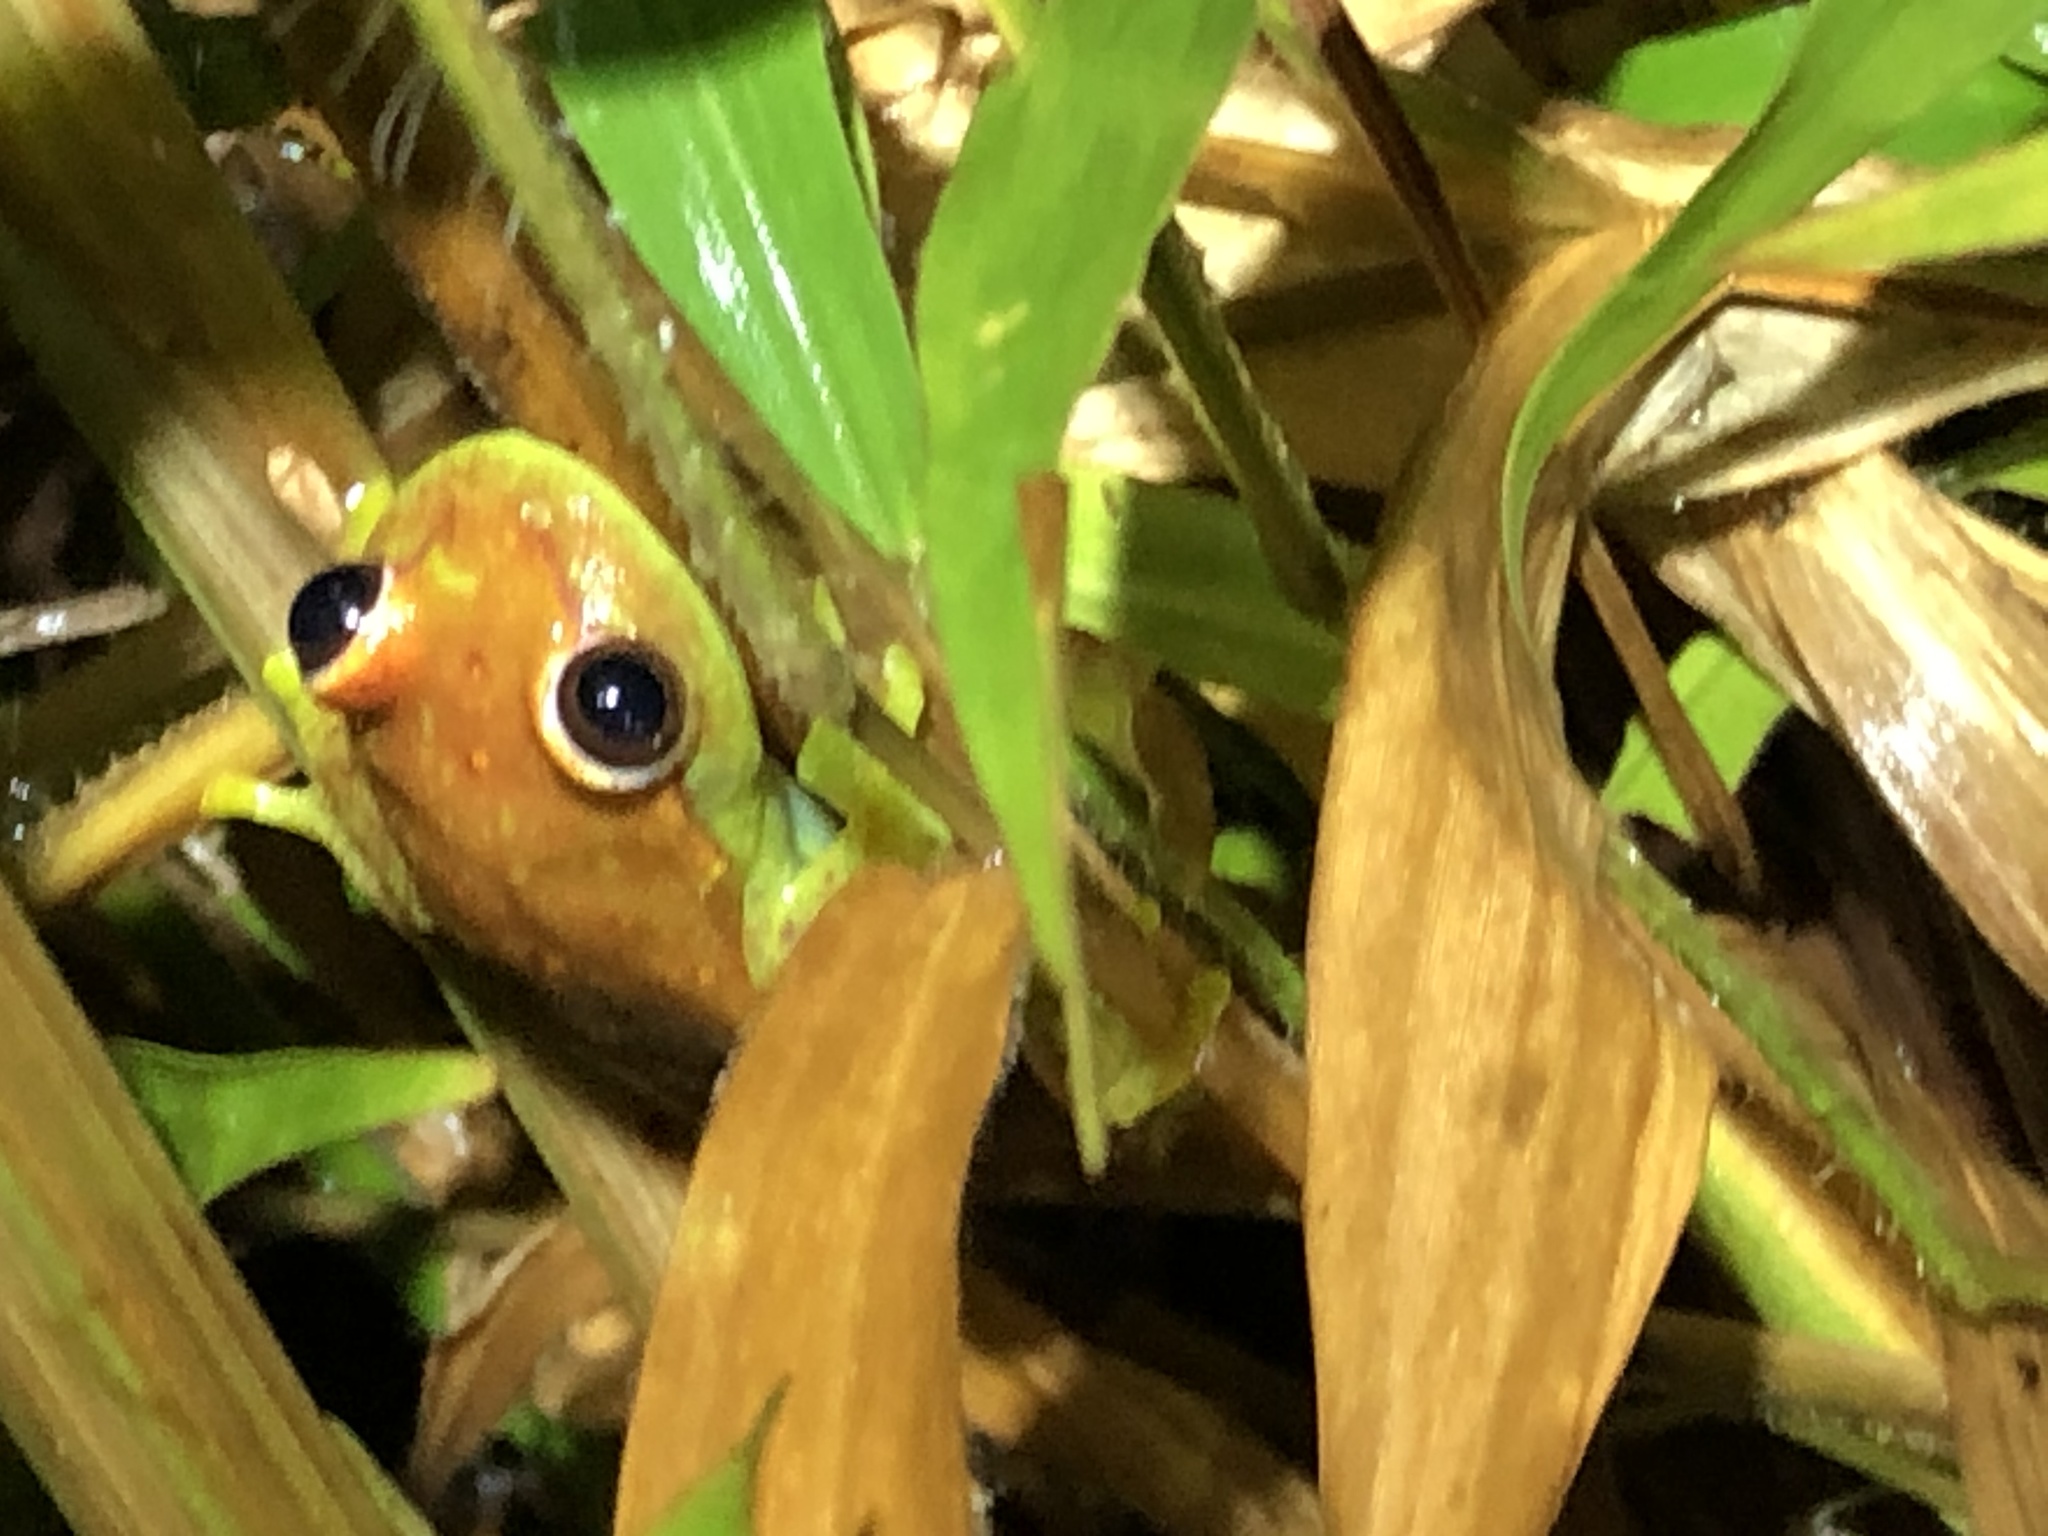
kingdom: Animalia
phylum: Chordata
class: Amphibia
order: Anura
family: Hylidae
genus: Boana
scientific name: Boana punctata
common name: Polka-dot treefrog
